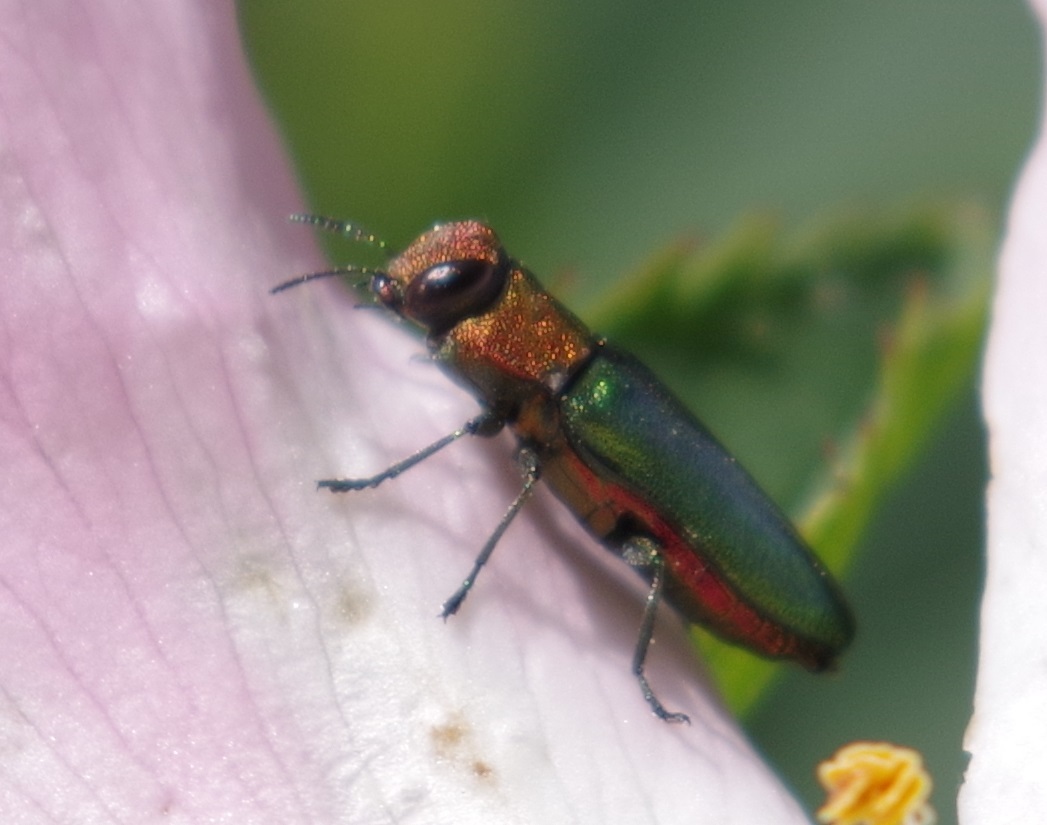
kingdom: Animalia
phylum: Arthropoda
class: Insecta
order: Coleoptera
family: Buprestidae
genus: Anthaxia
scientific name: Anthaxia nitidula
